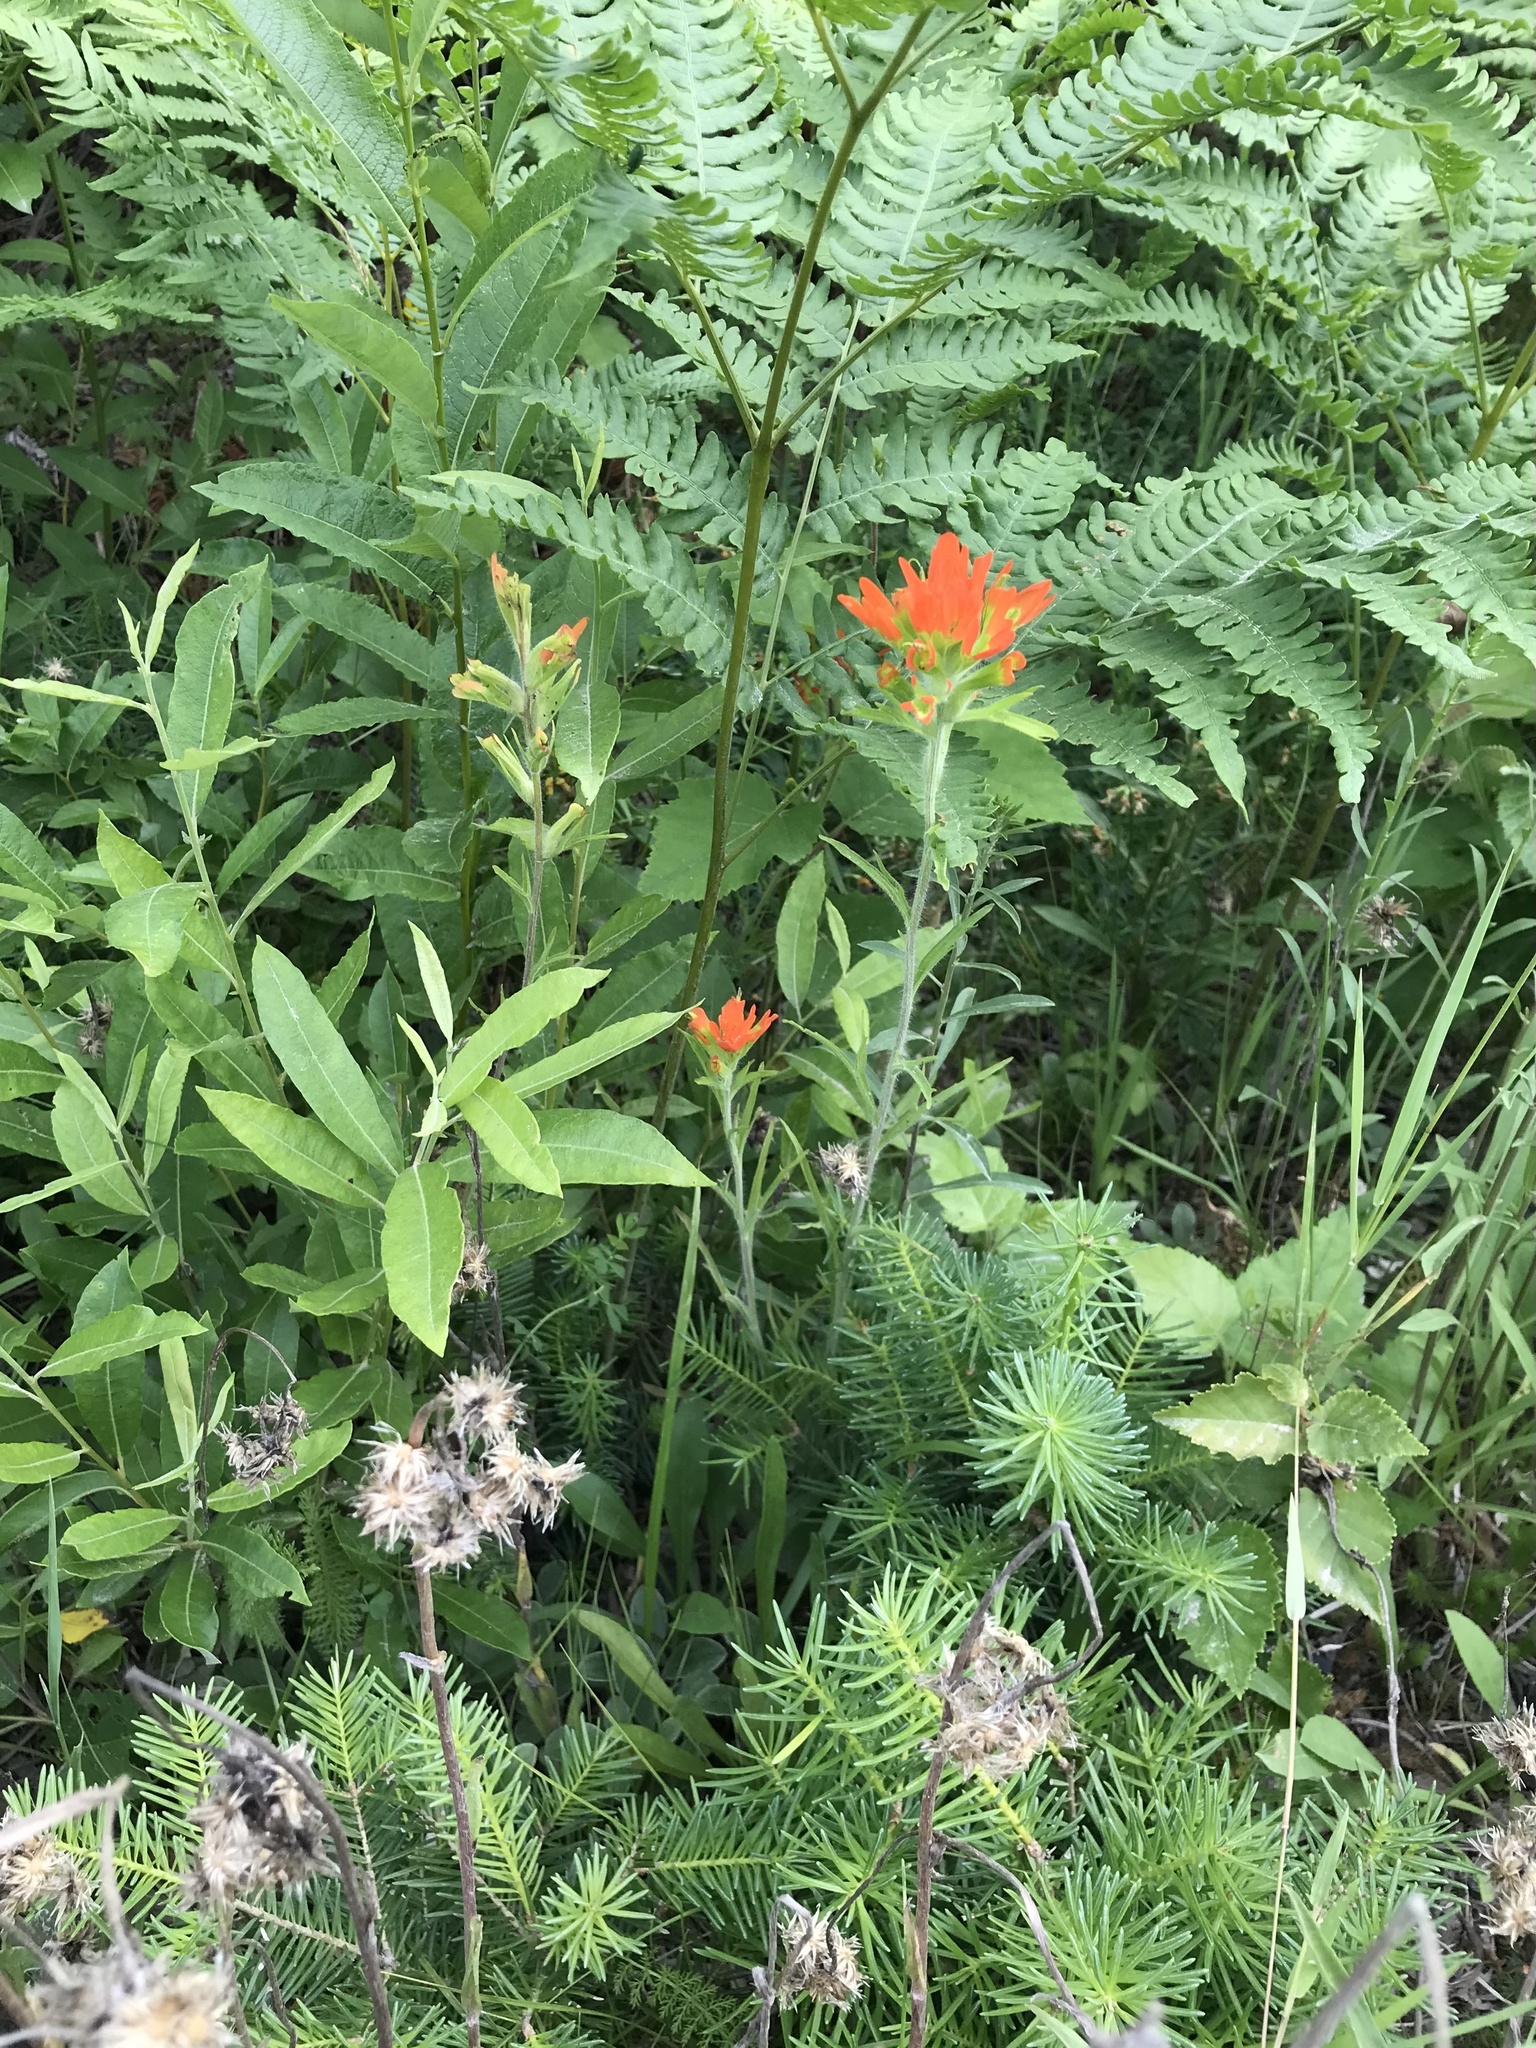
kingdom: Plantae
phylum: Tracheophyta
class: Magnoliopsida
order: Lamiales
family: Orobanchaceae
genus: Castilleja
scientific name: Castilleja coccinea
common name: Scarlet paintbrush
